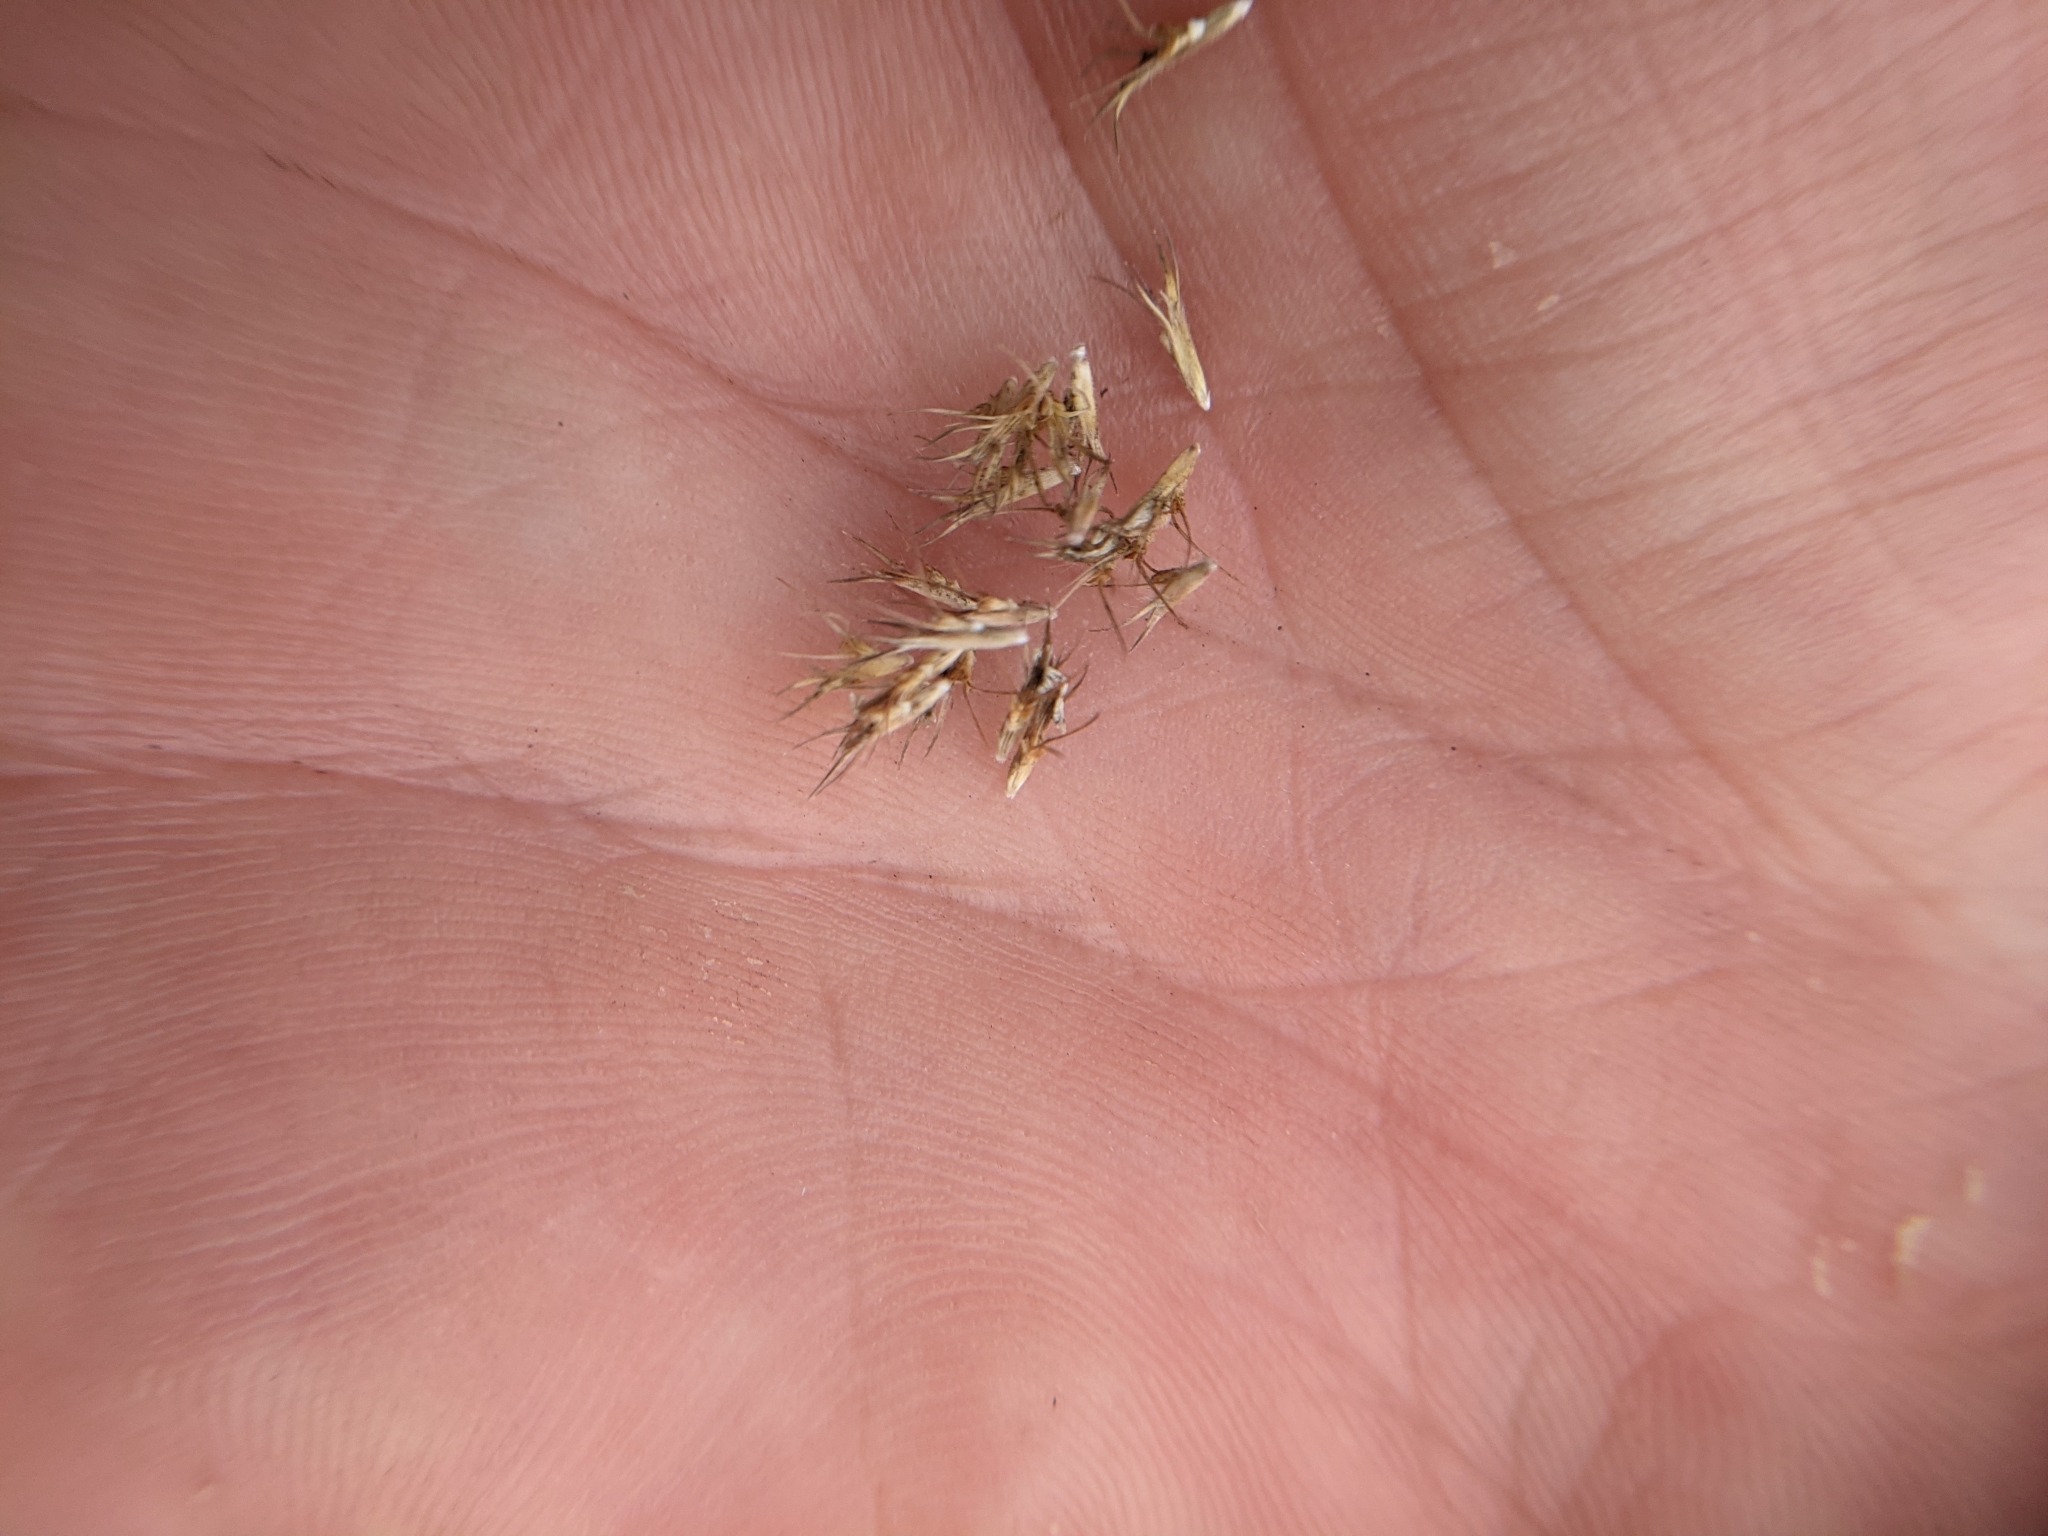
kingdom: Plantae
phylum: Tracheophyta
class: Liliopsida
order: Poales
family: Poaceae
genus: Bouteloua
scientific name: Bouteloua pectinata
